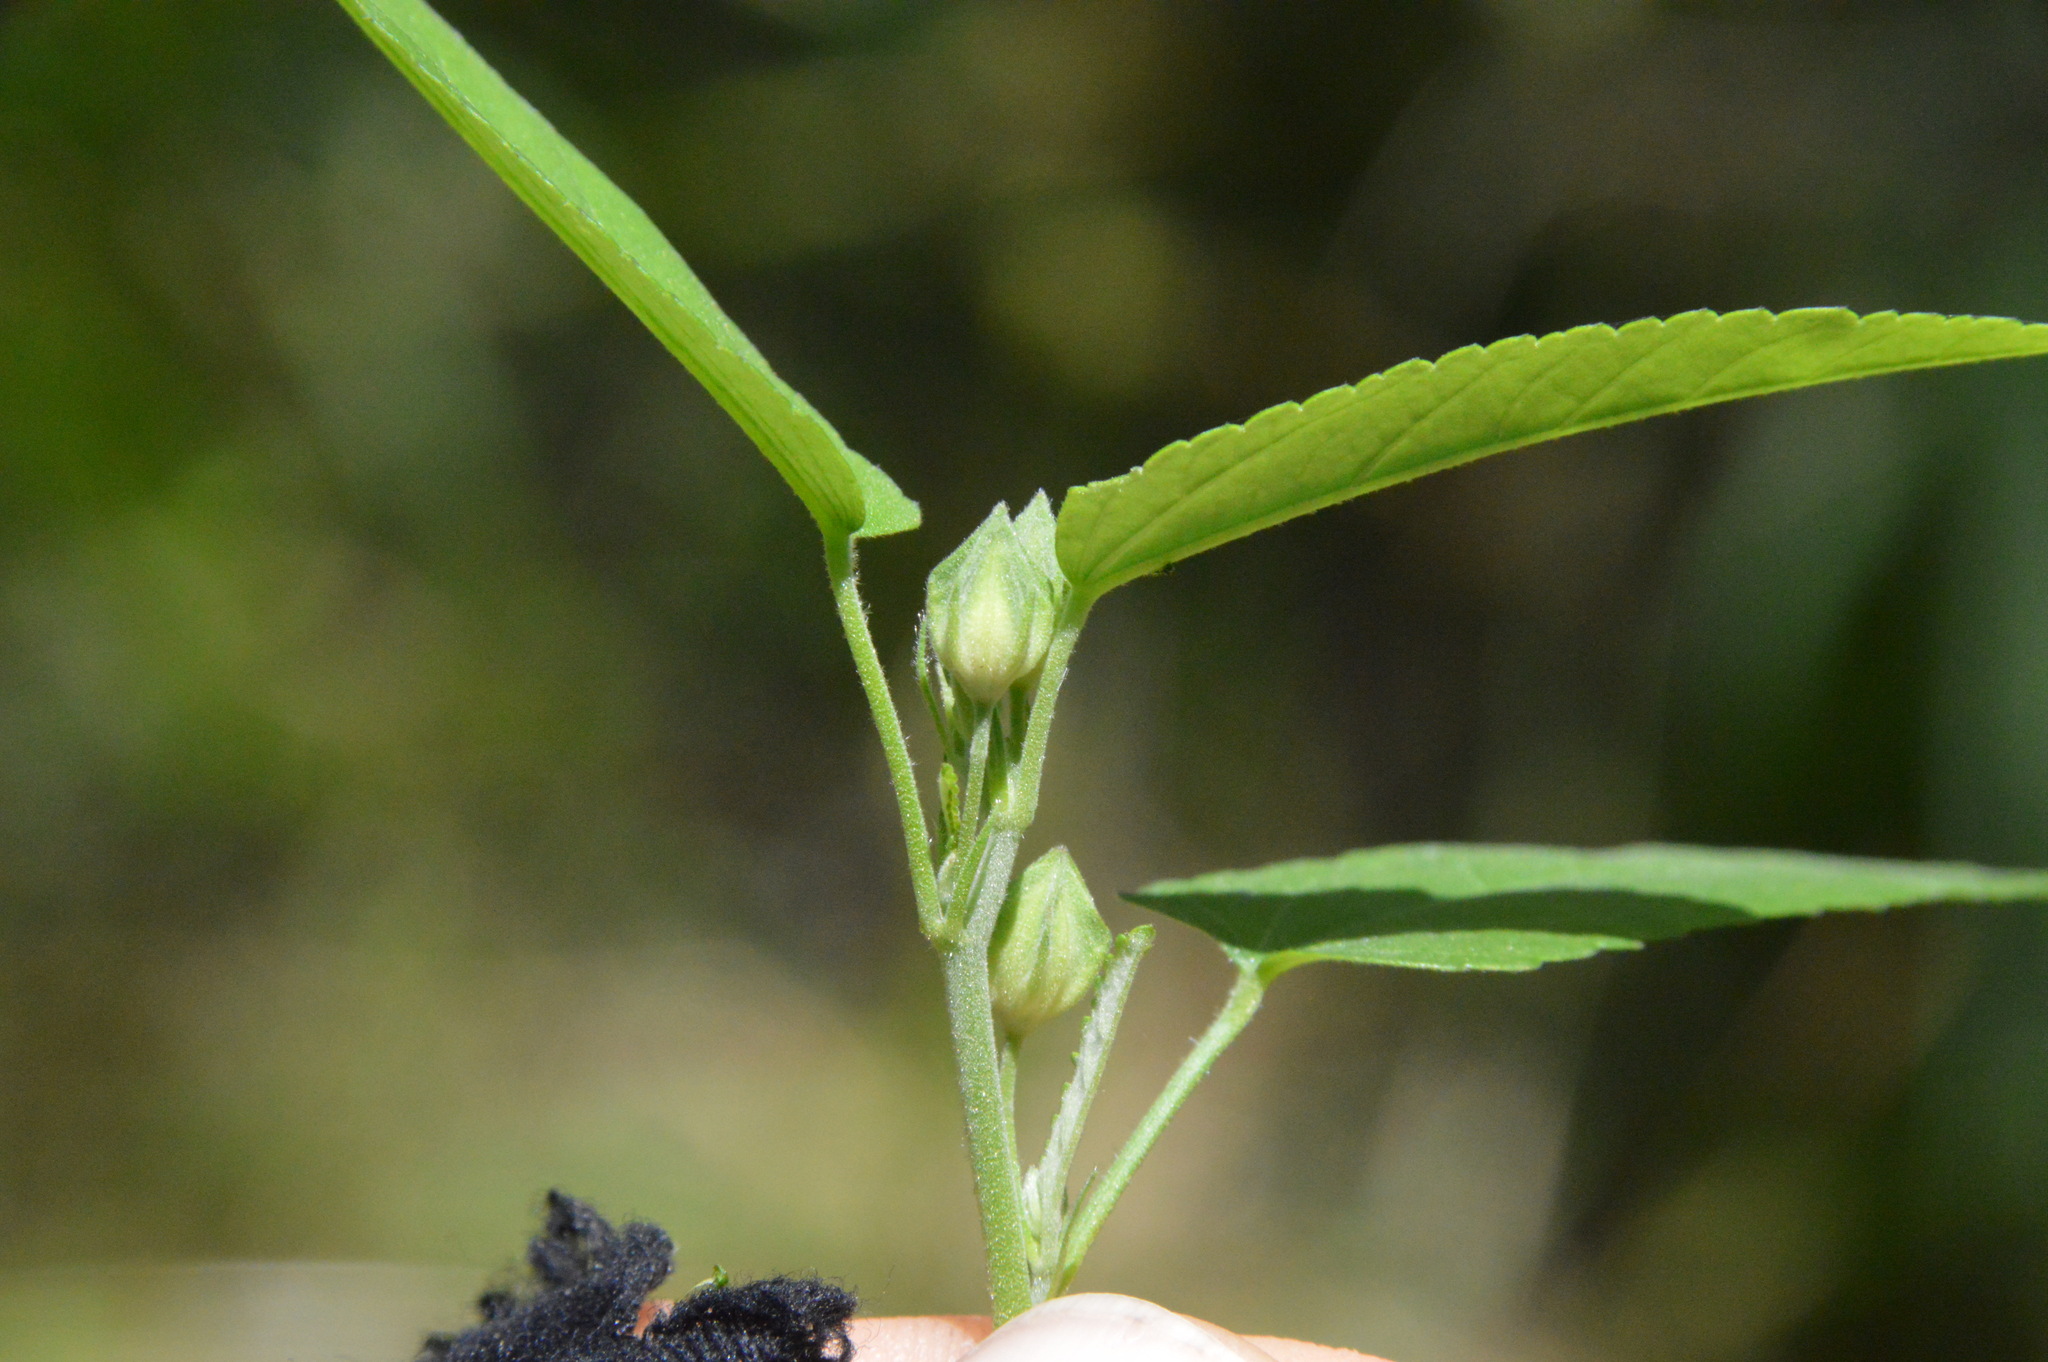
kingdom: Plantae
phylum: Tracheophyta
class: Magnoliopsida
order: Malvales
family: Malvaceae
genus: Sida
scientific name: Sida spinosa
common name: Prickly fanpetals
